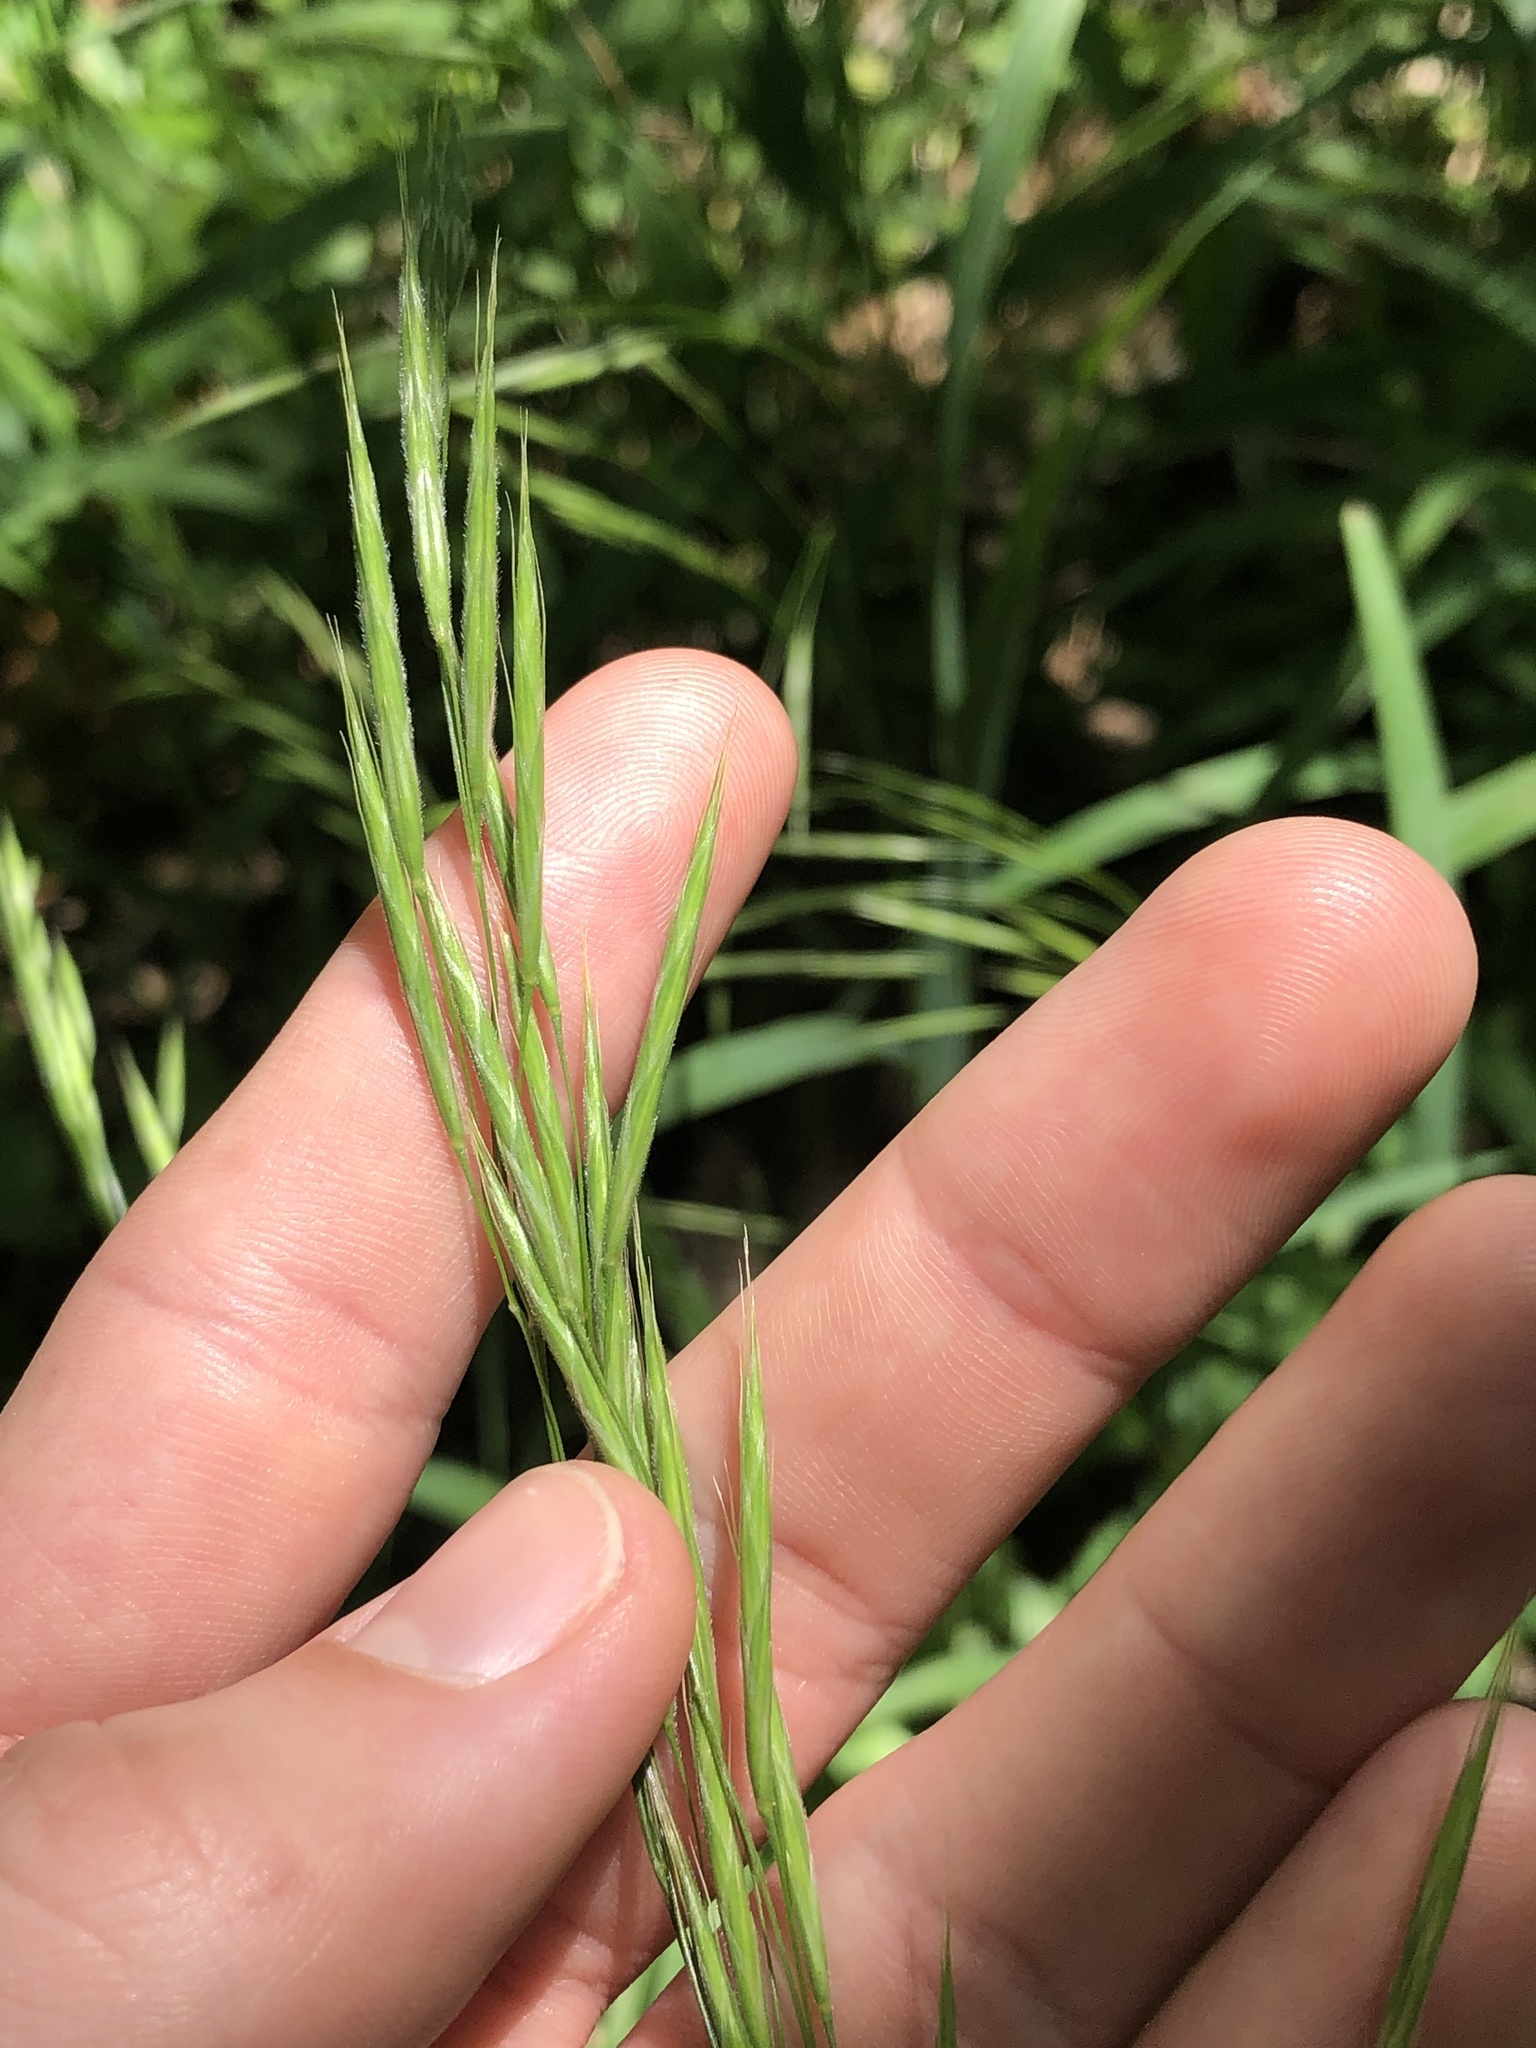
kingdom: Plantae
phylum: Tracheophyta
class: Liliopsida
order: Poales
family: Poaceae
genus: Bromus
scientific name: Bromus pubescens
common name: Hairy wood brome grass
